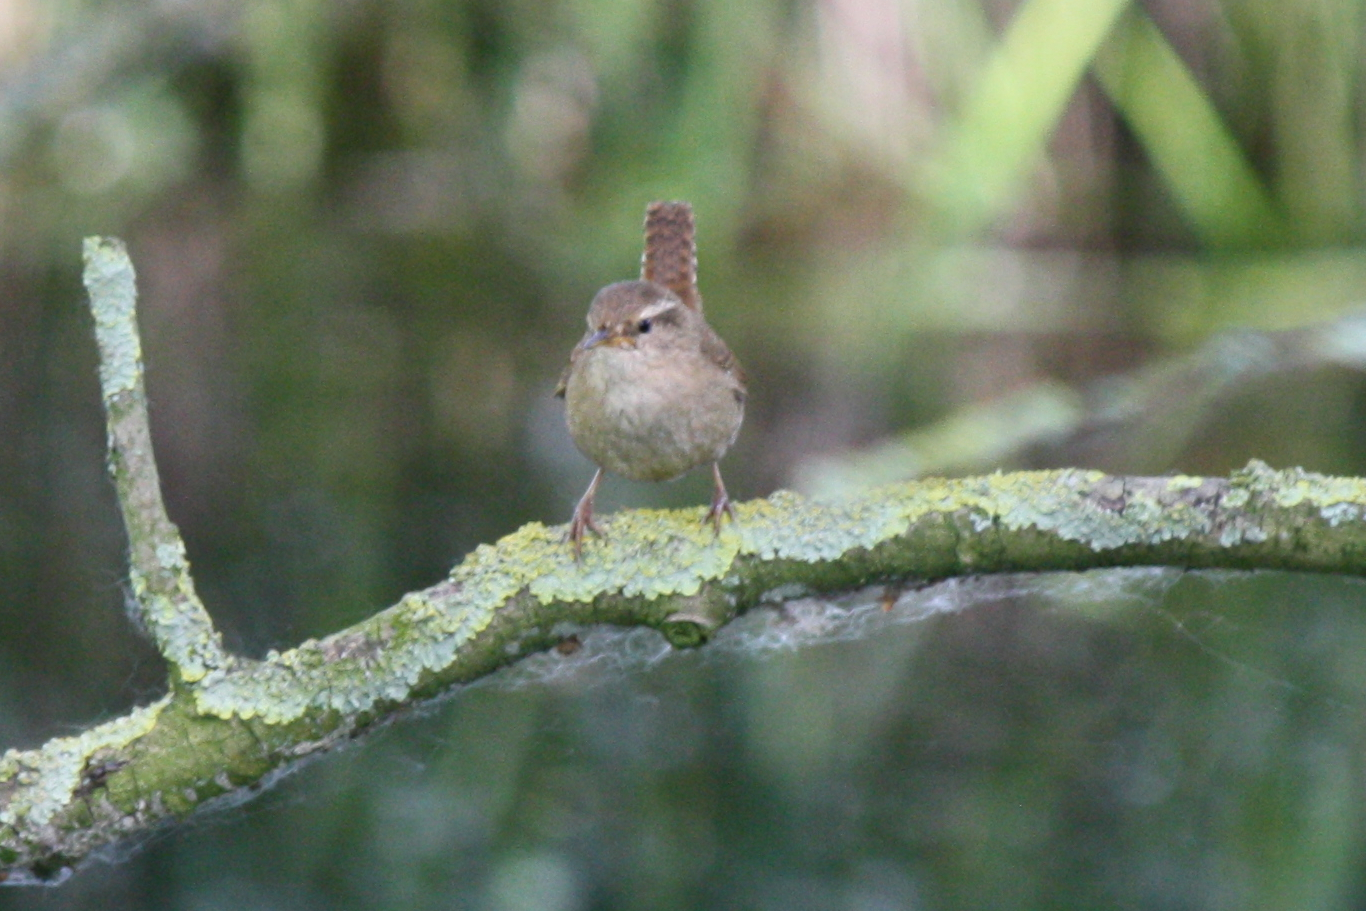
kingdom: Animalia
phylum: Chordata
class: Aves
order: Passeriformes
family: Troglodytidae
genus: Troglodytes
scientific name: Troglodytes troglodytes
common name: Eurasian wren
